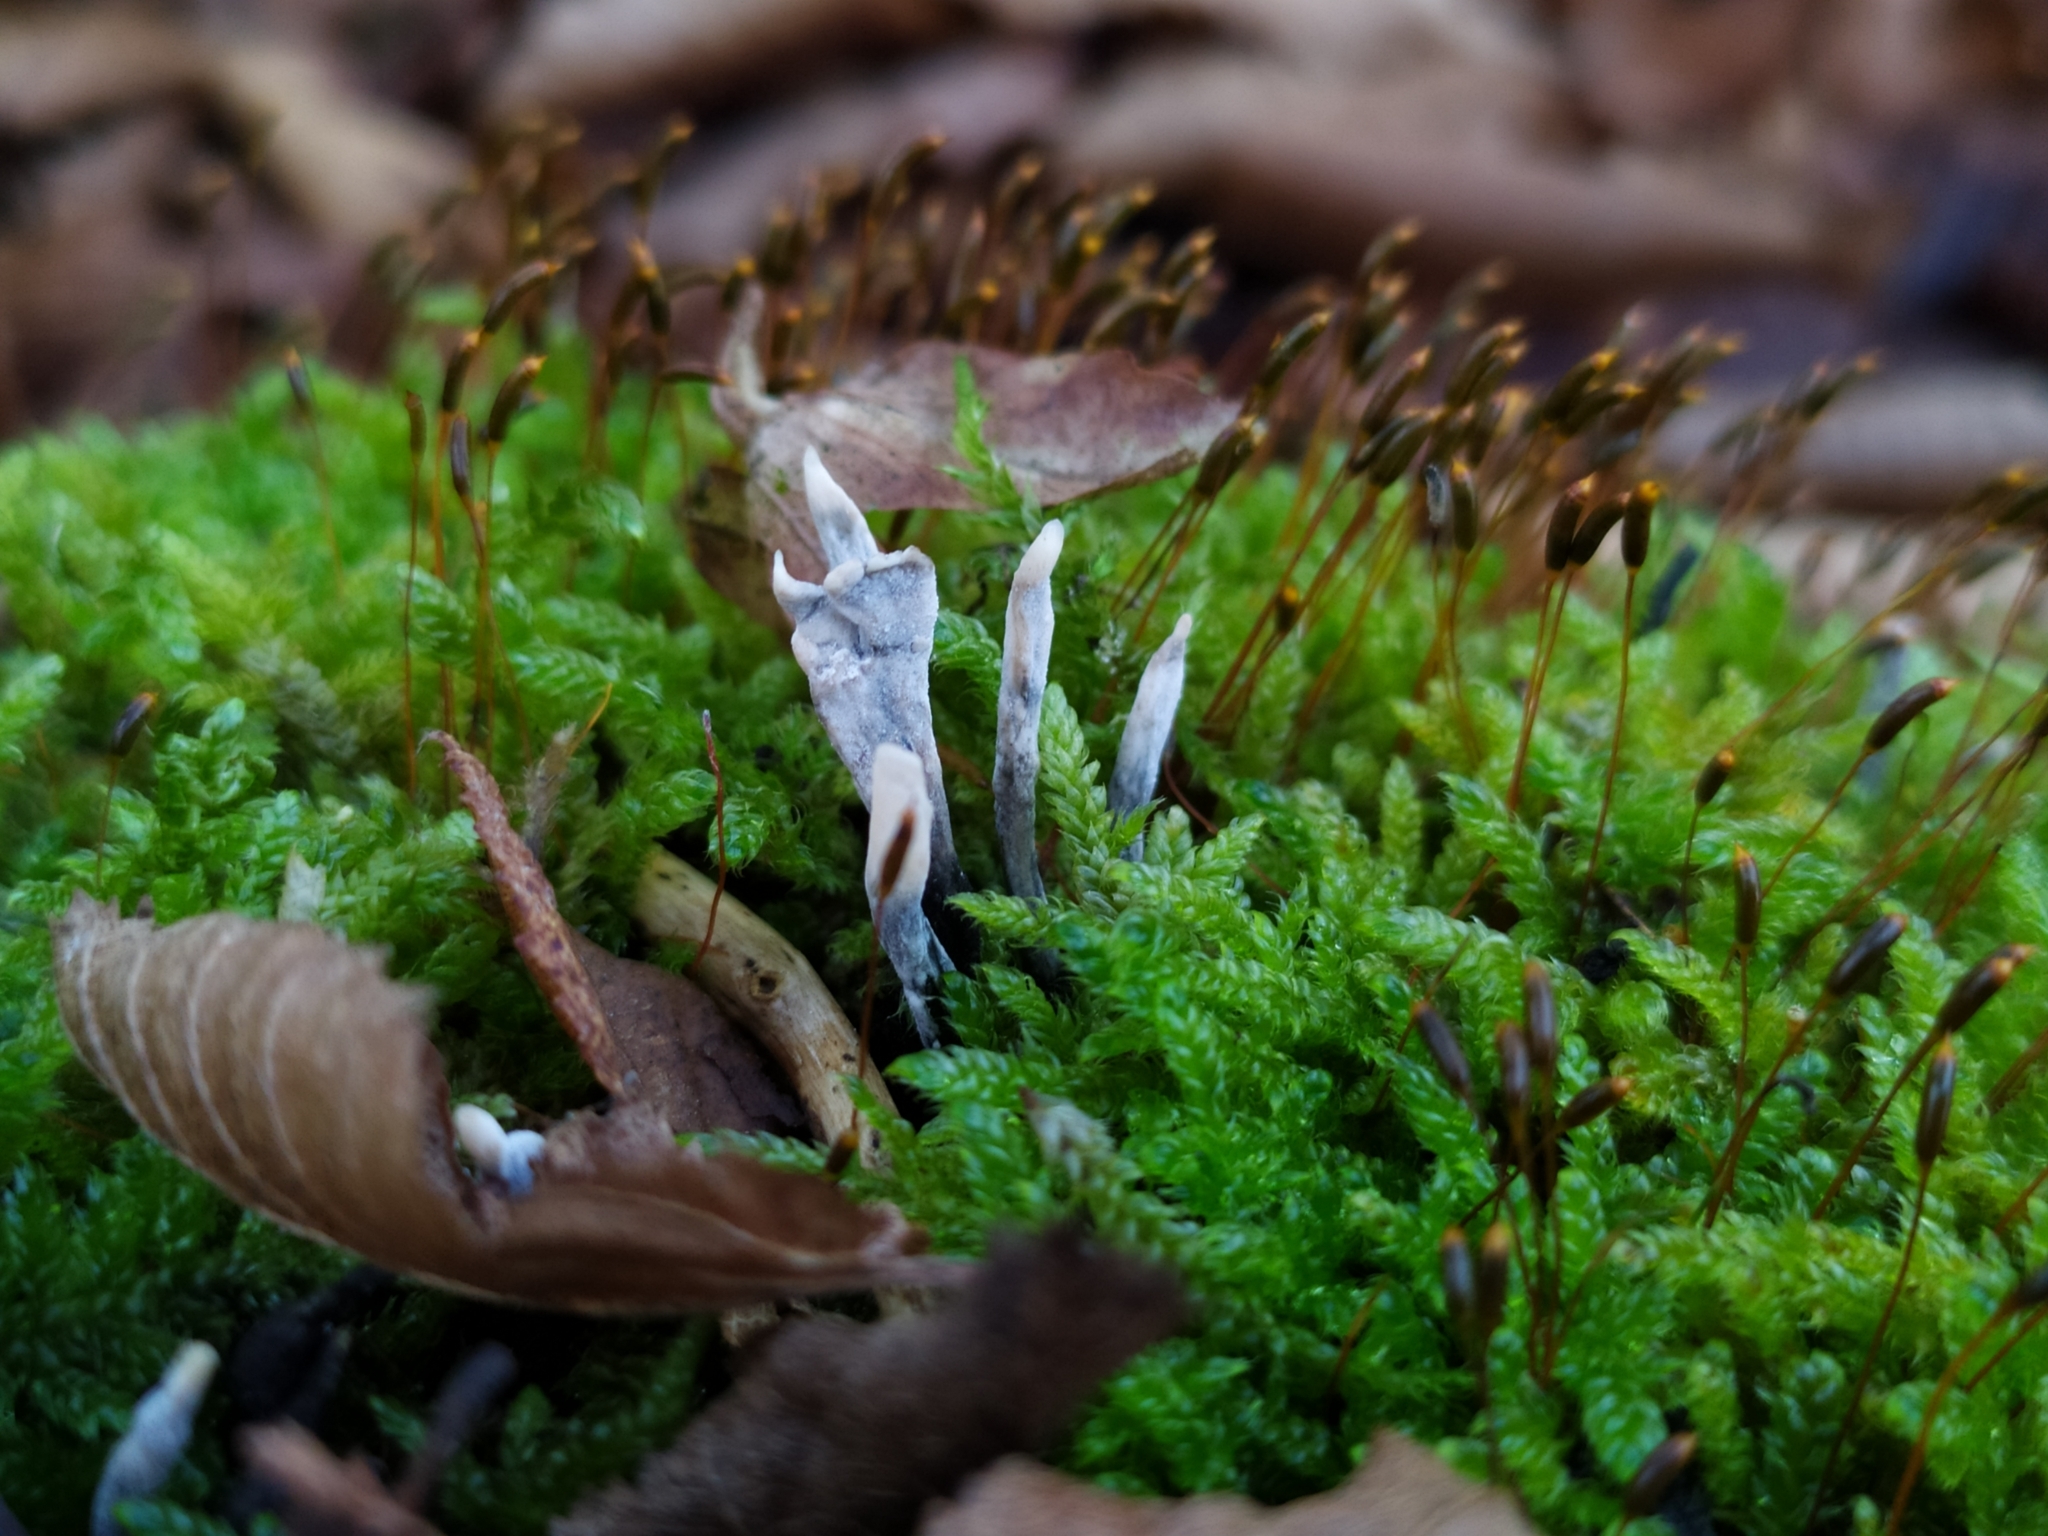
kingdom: Fungi
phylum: Ascomycota
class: Sordariomycetes
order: Xylariales
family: Xylariaceae
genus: Xylaria
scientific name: Xylaria hypoxylon
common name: Candle-snuff fungus
